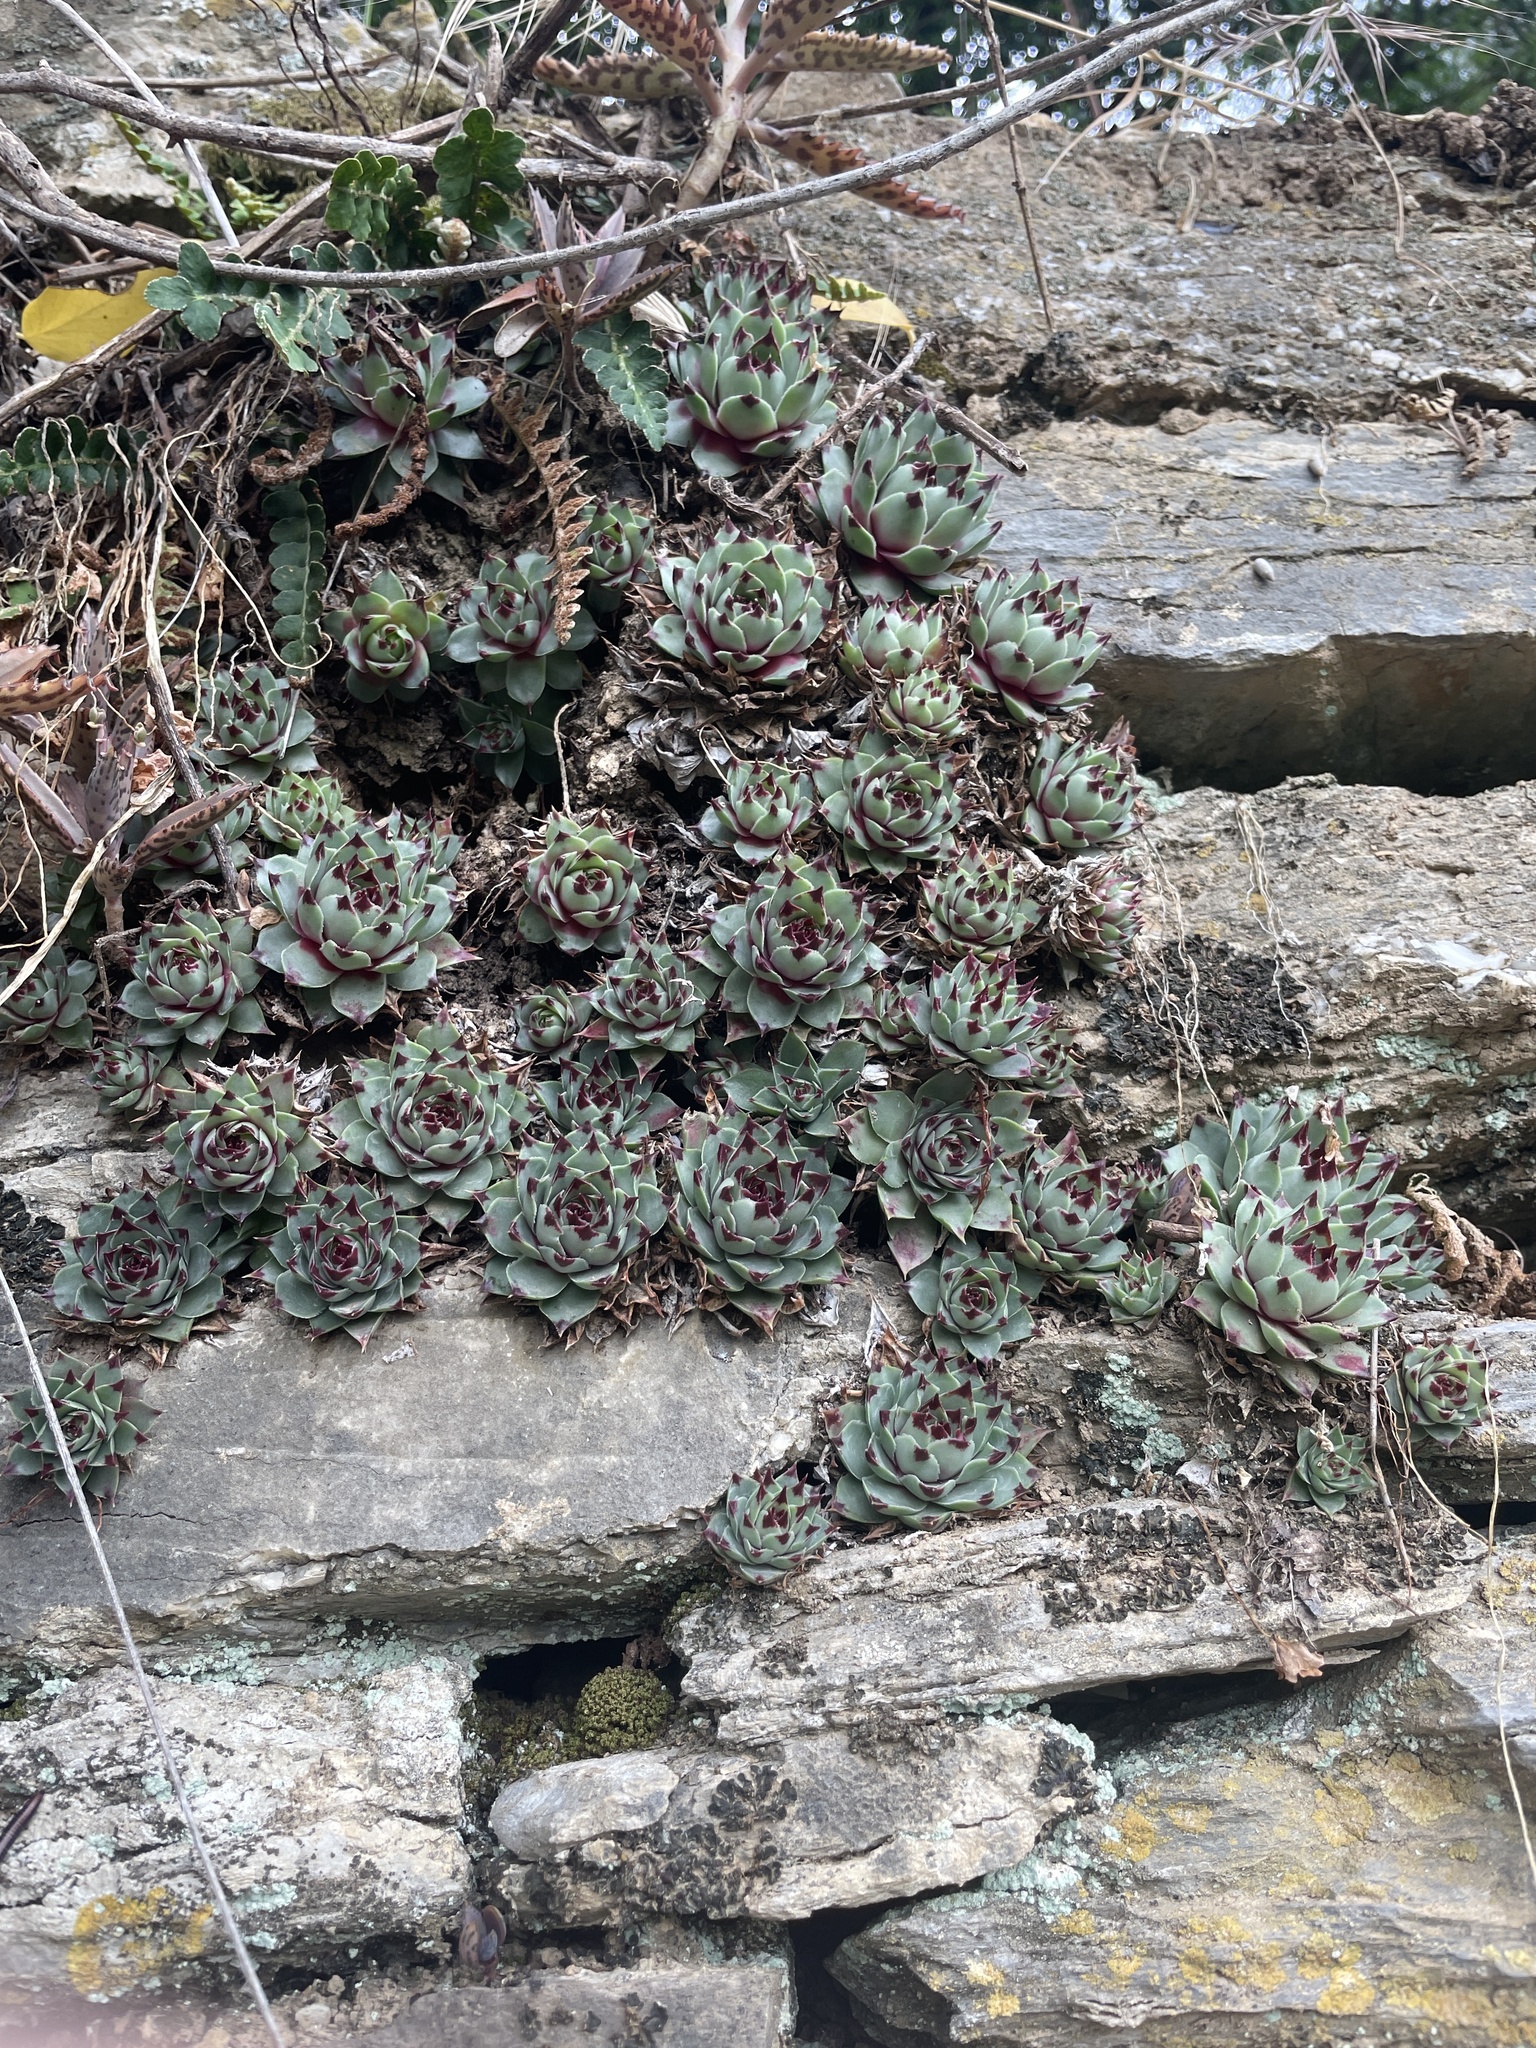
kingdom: Plantae
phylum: Tracheophyta
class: Magnoliopsida
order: Saxifragales
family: Crassulaceae
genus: Sempervivum
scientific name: Sempervivum calcareum
